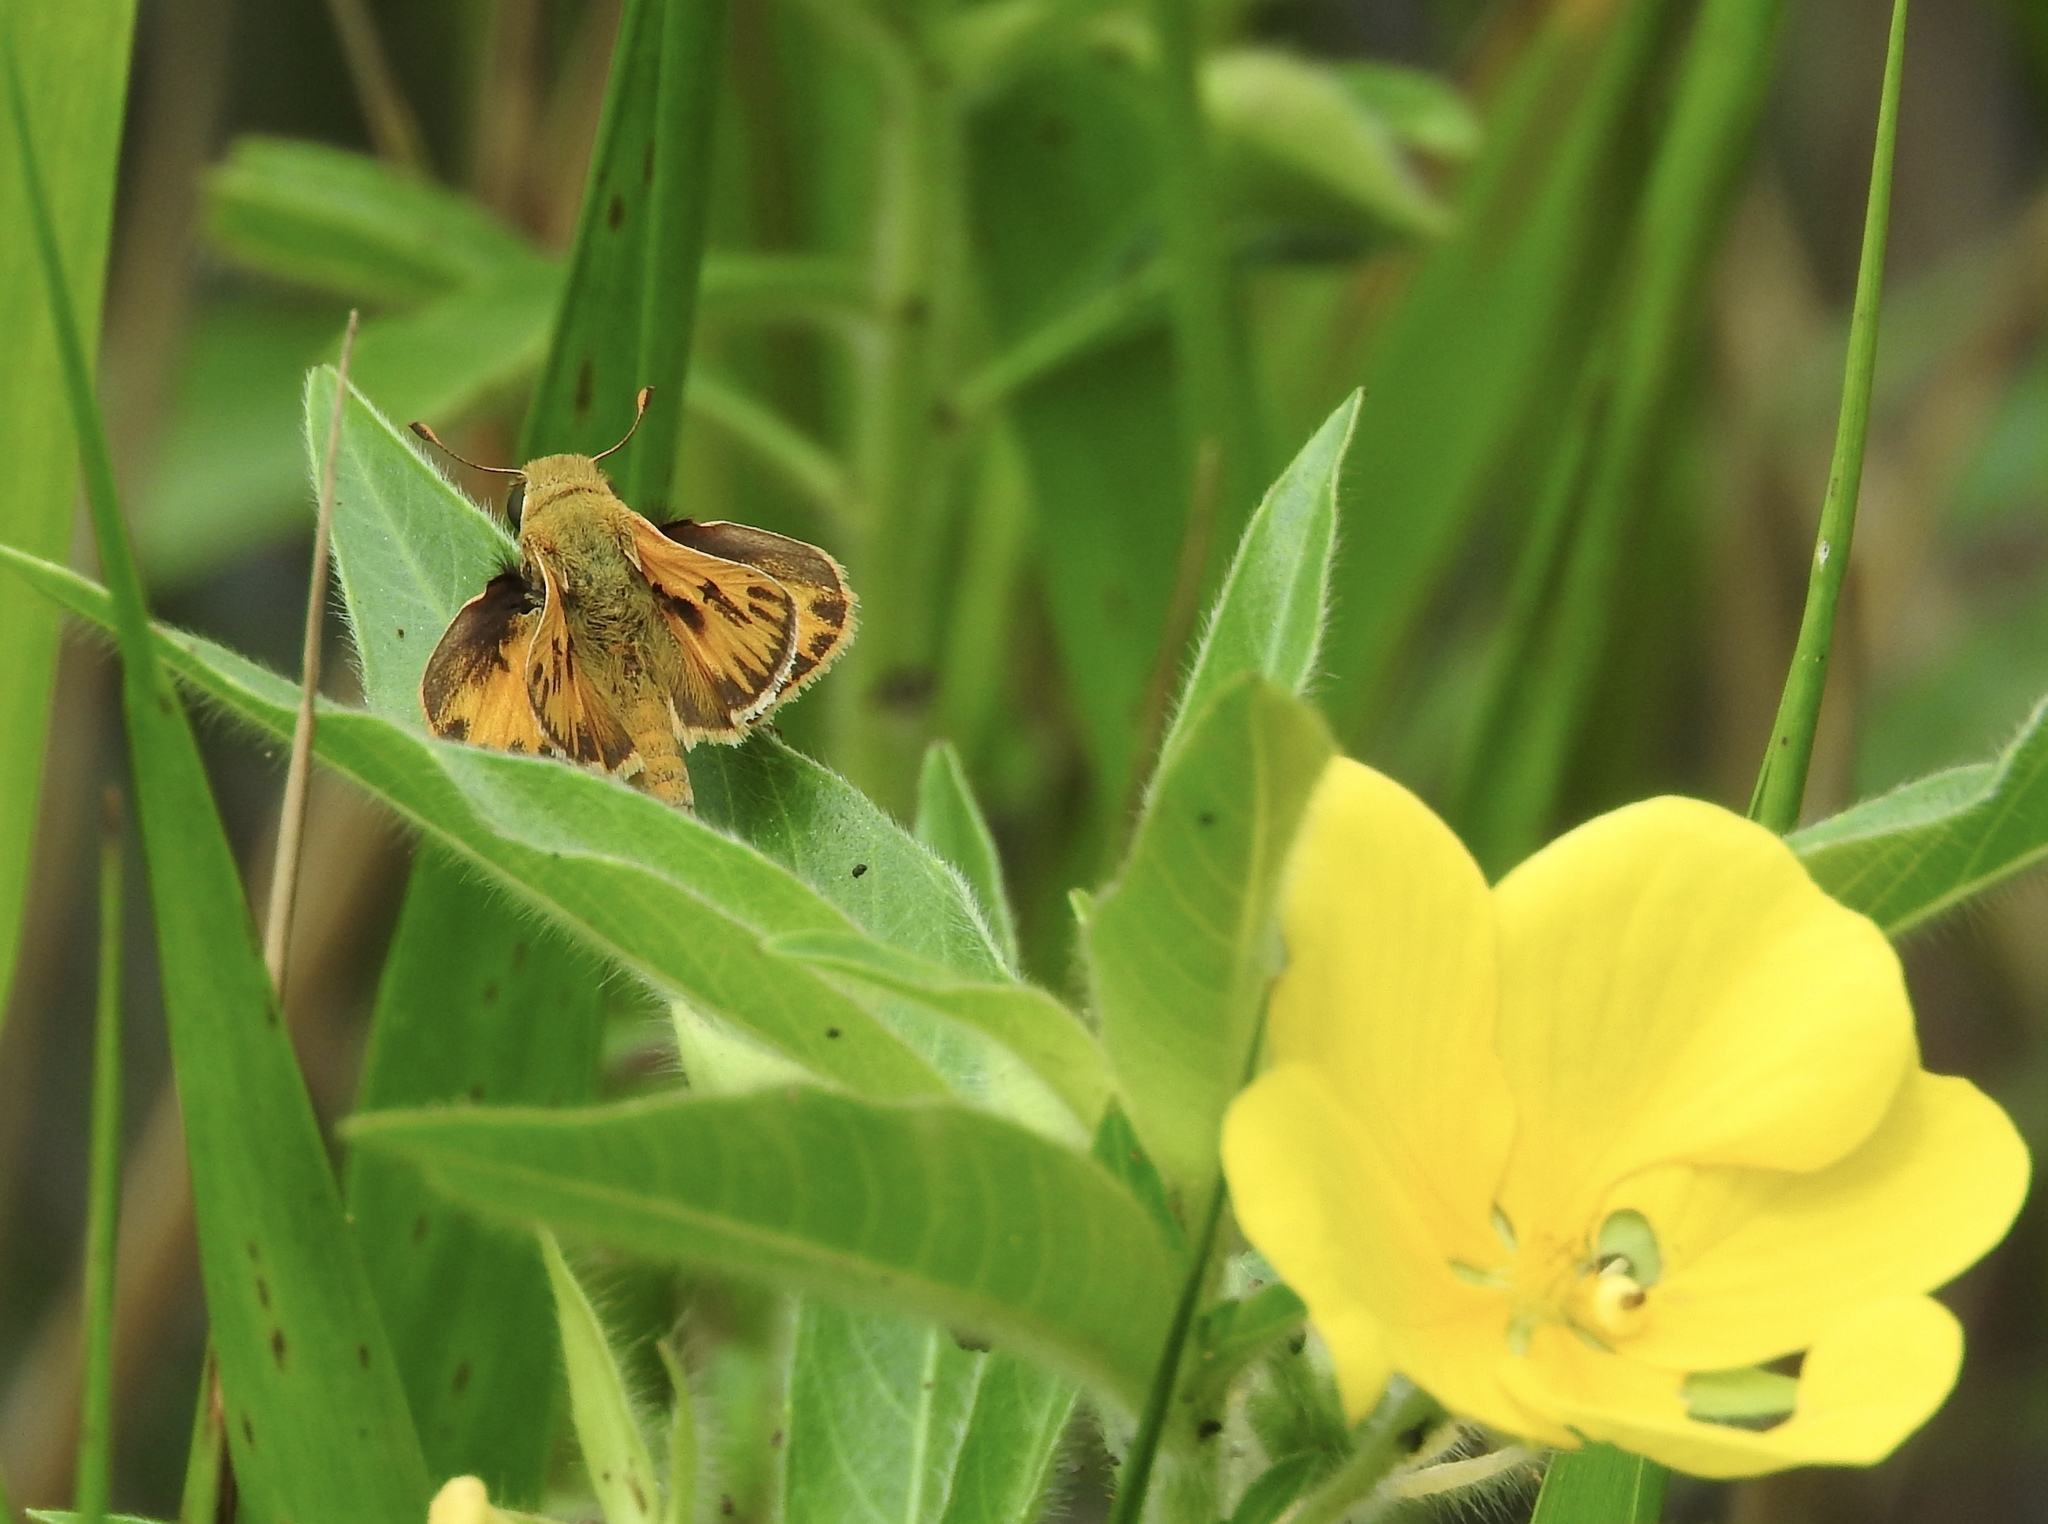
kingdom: Animalia
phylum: Arthropoda
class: Insecta
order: Lepidoptera
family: Hesperiidae
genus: Hylephila
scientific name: Hylephila phyleus
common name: Fiery skipper
